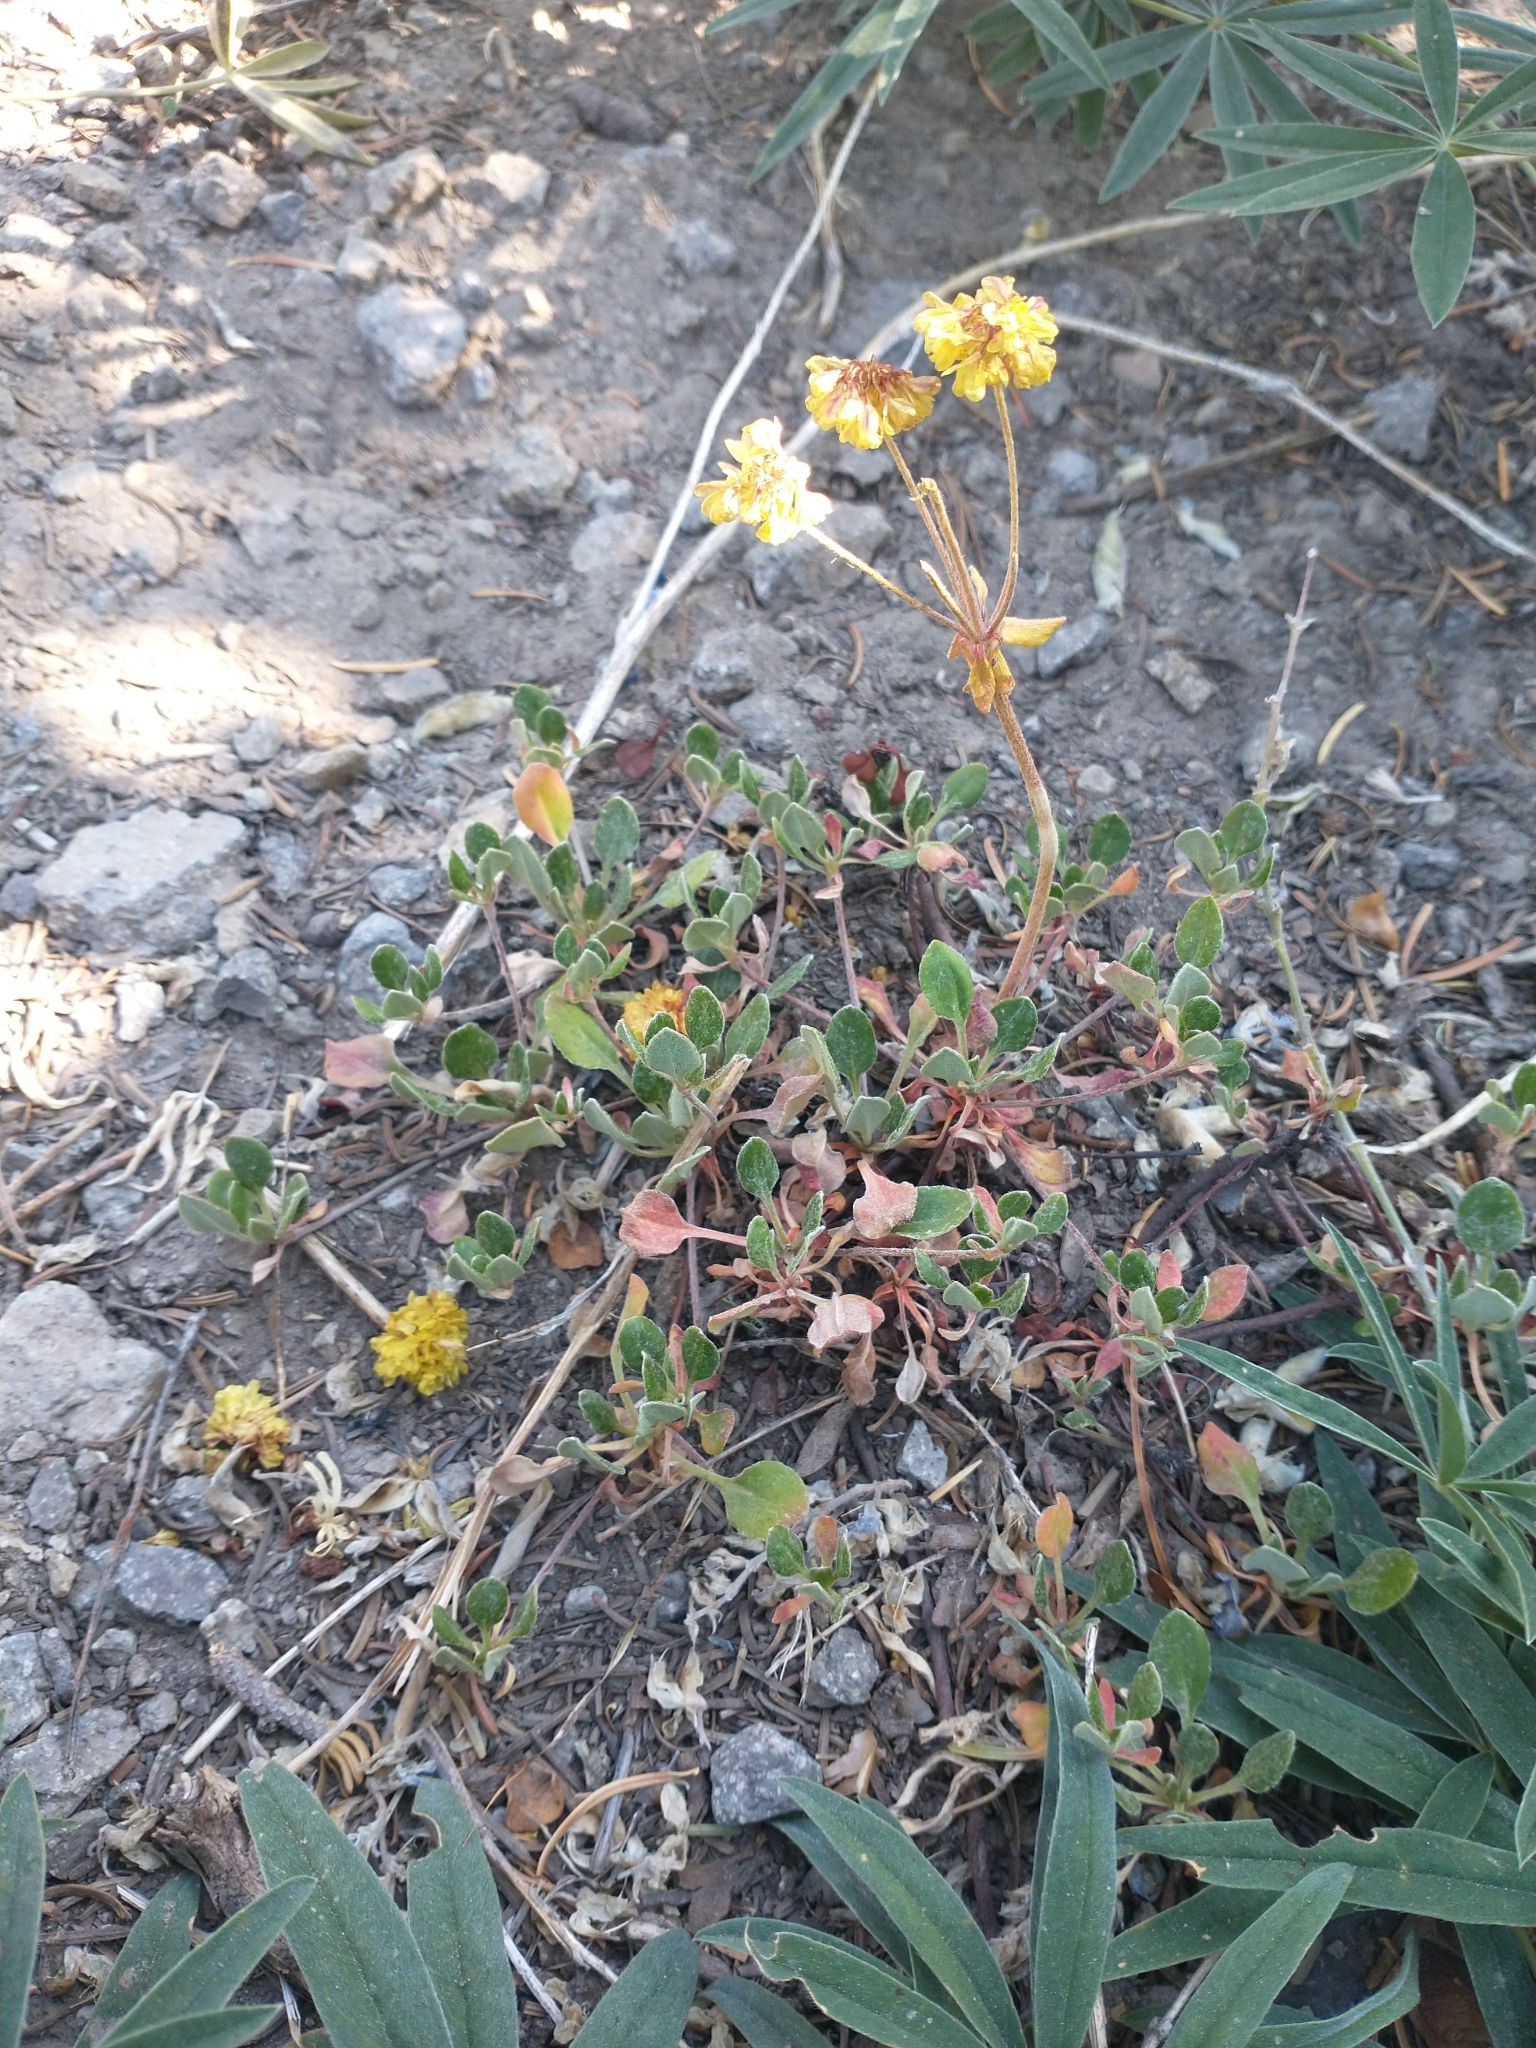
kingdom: Plantae
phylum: Tracheophyta
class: Magnoliopsida
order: Caryophyllales
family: Polygonaceae
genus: Eriogonum
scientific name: Eriogonum umbellatum
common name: Sulfur-buckwheat
